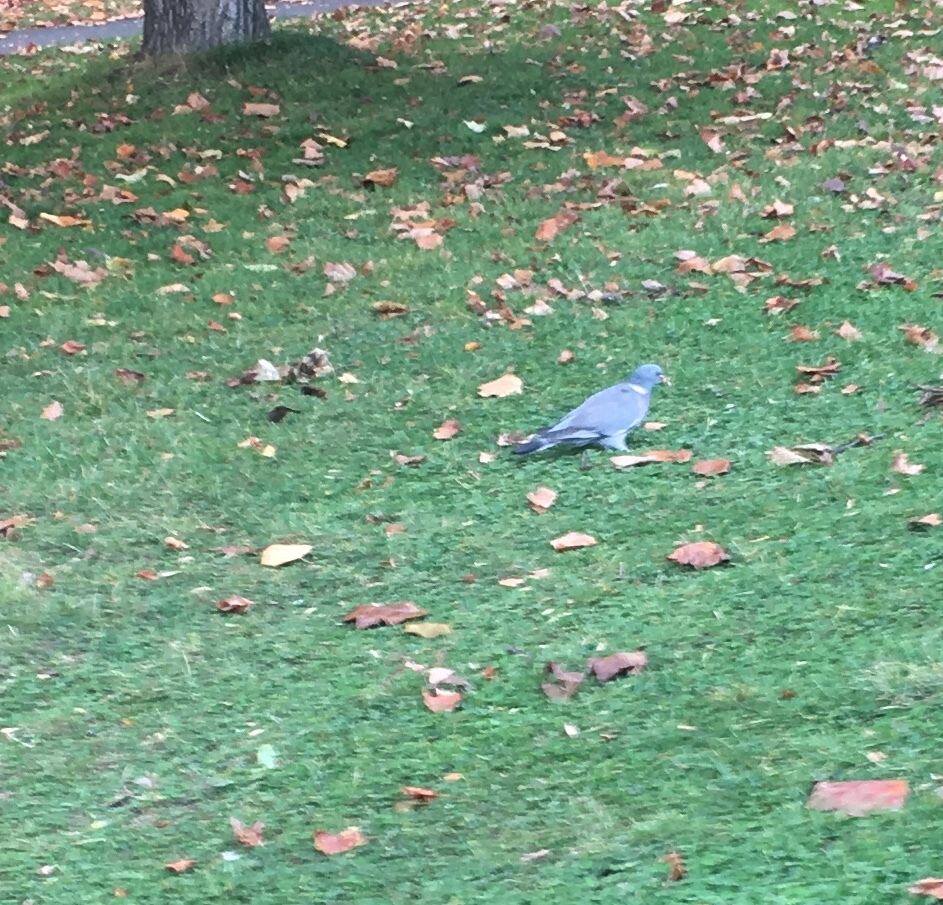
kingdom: Animalia
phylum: Chordata
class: Aves
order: Columbiformes
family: Columbidae
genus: Columba
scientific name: Columba palumbus
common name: Common wood pigeon
